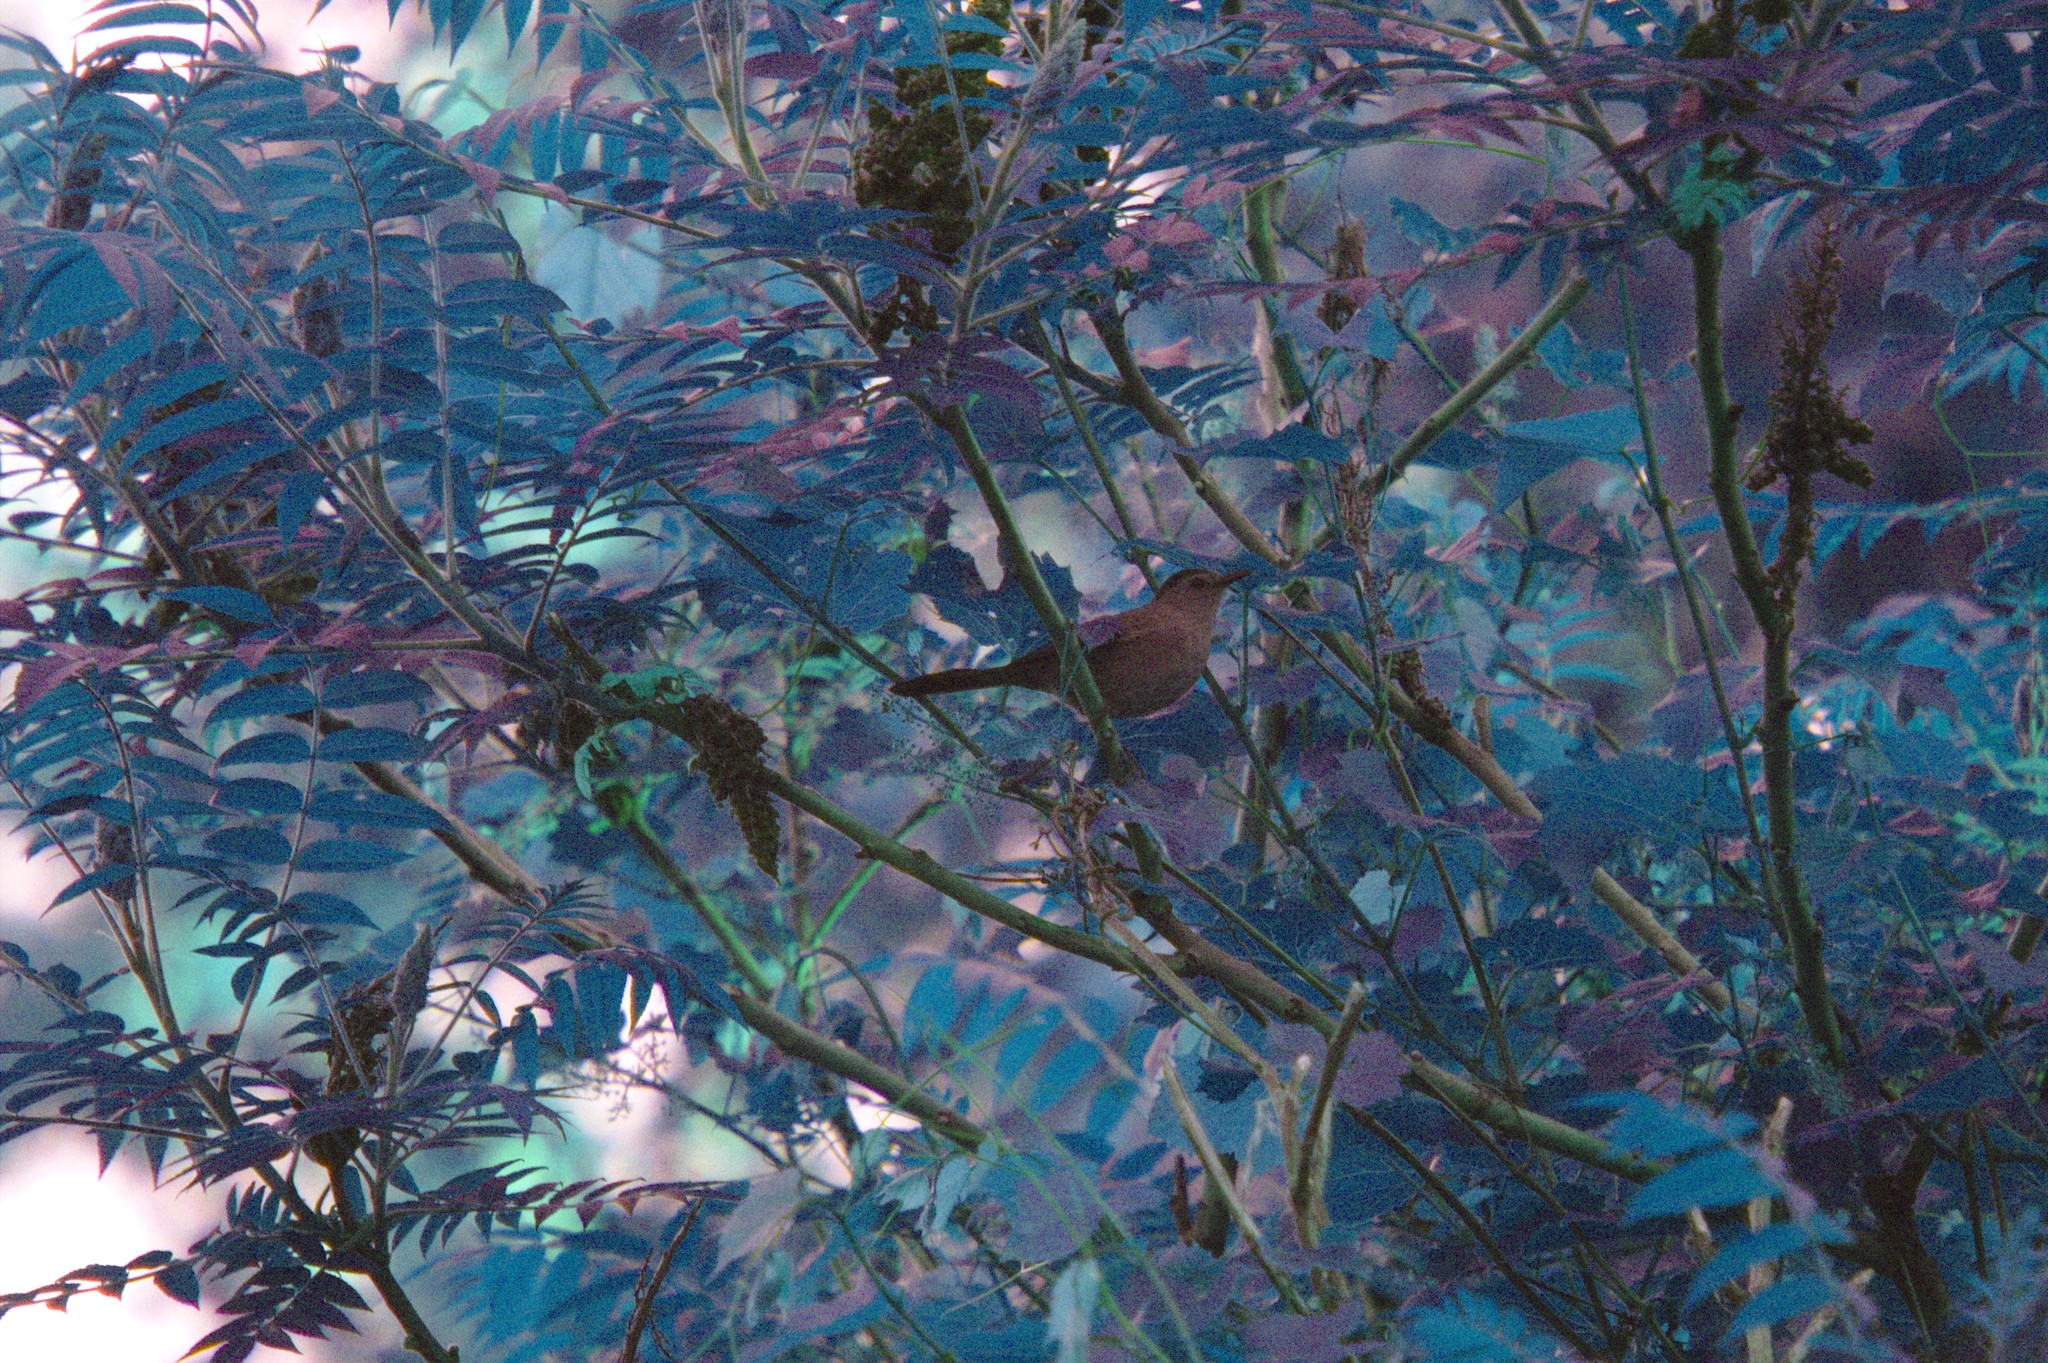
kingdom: Animalia
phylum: Chordata
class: Aves
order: Passeriformes
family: Mimidae
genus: Dumetella
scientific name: Dumetella carolinensis
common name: Gray catbird
